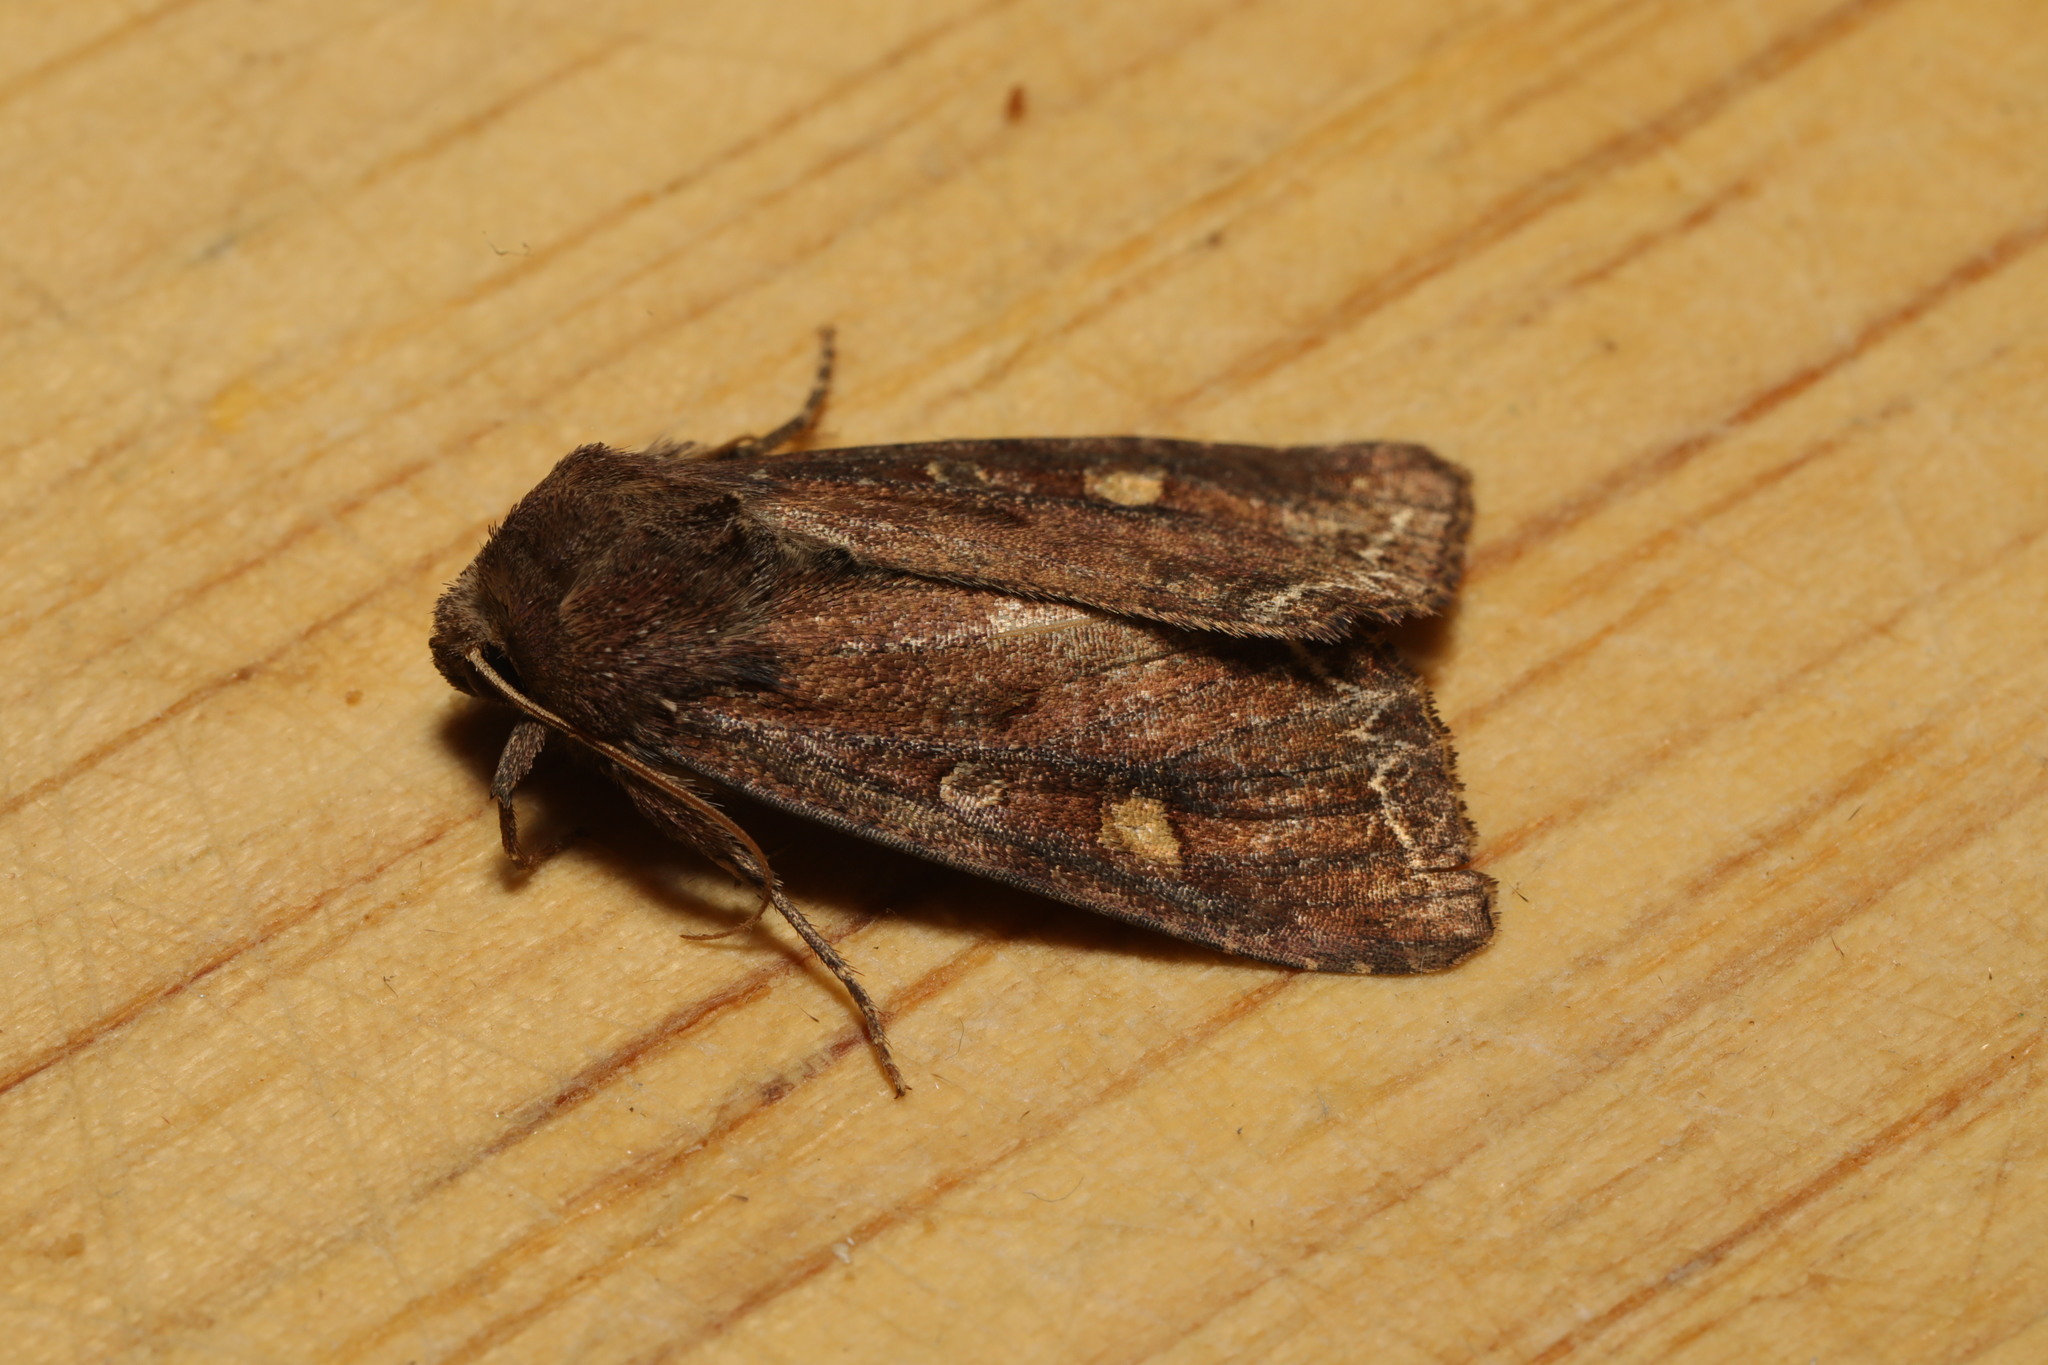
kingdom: Animalia
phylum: Arthropoda
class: Insecta
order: Lepidoptera
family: Noctuidae
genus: Lacanobia
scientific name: Lacanobia oleracea
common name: Bright-line brown-eye
